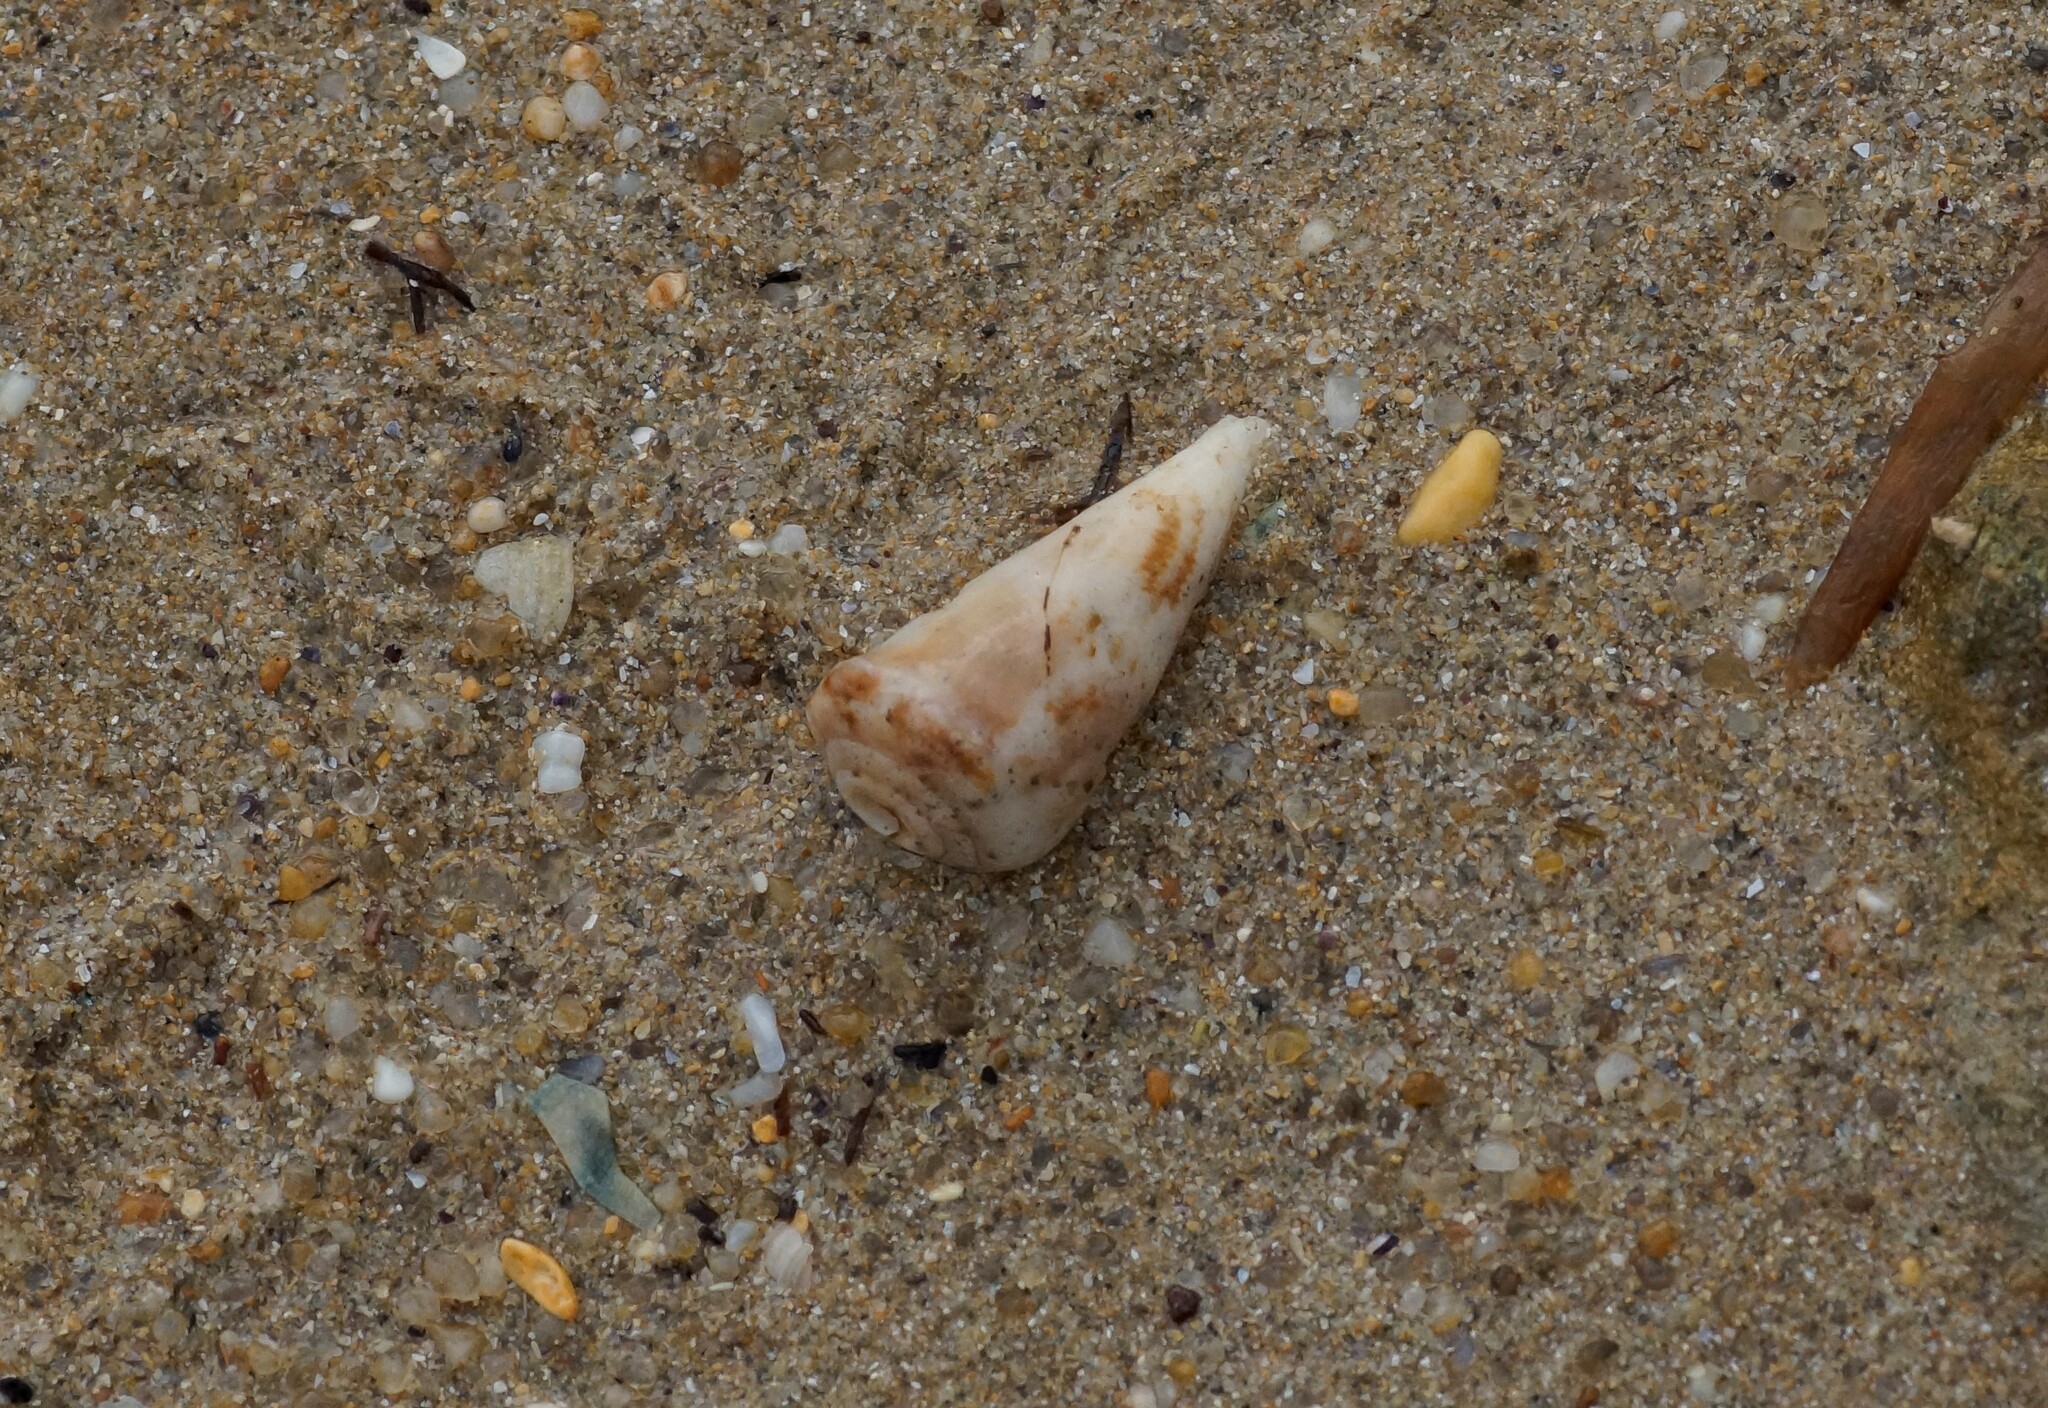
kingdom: Animalia
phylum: Mollusca
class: Gastropoda
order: Neogastropoda
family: Conidae
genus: Conus
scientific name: Conus anemone
